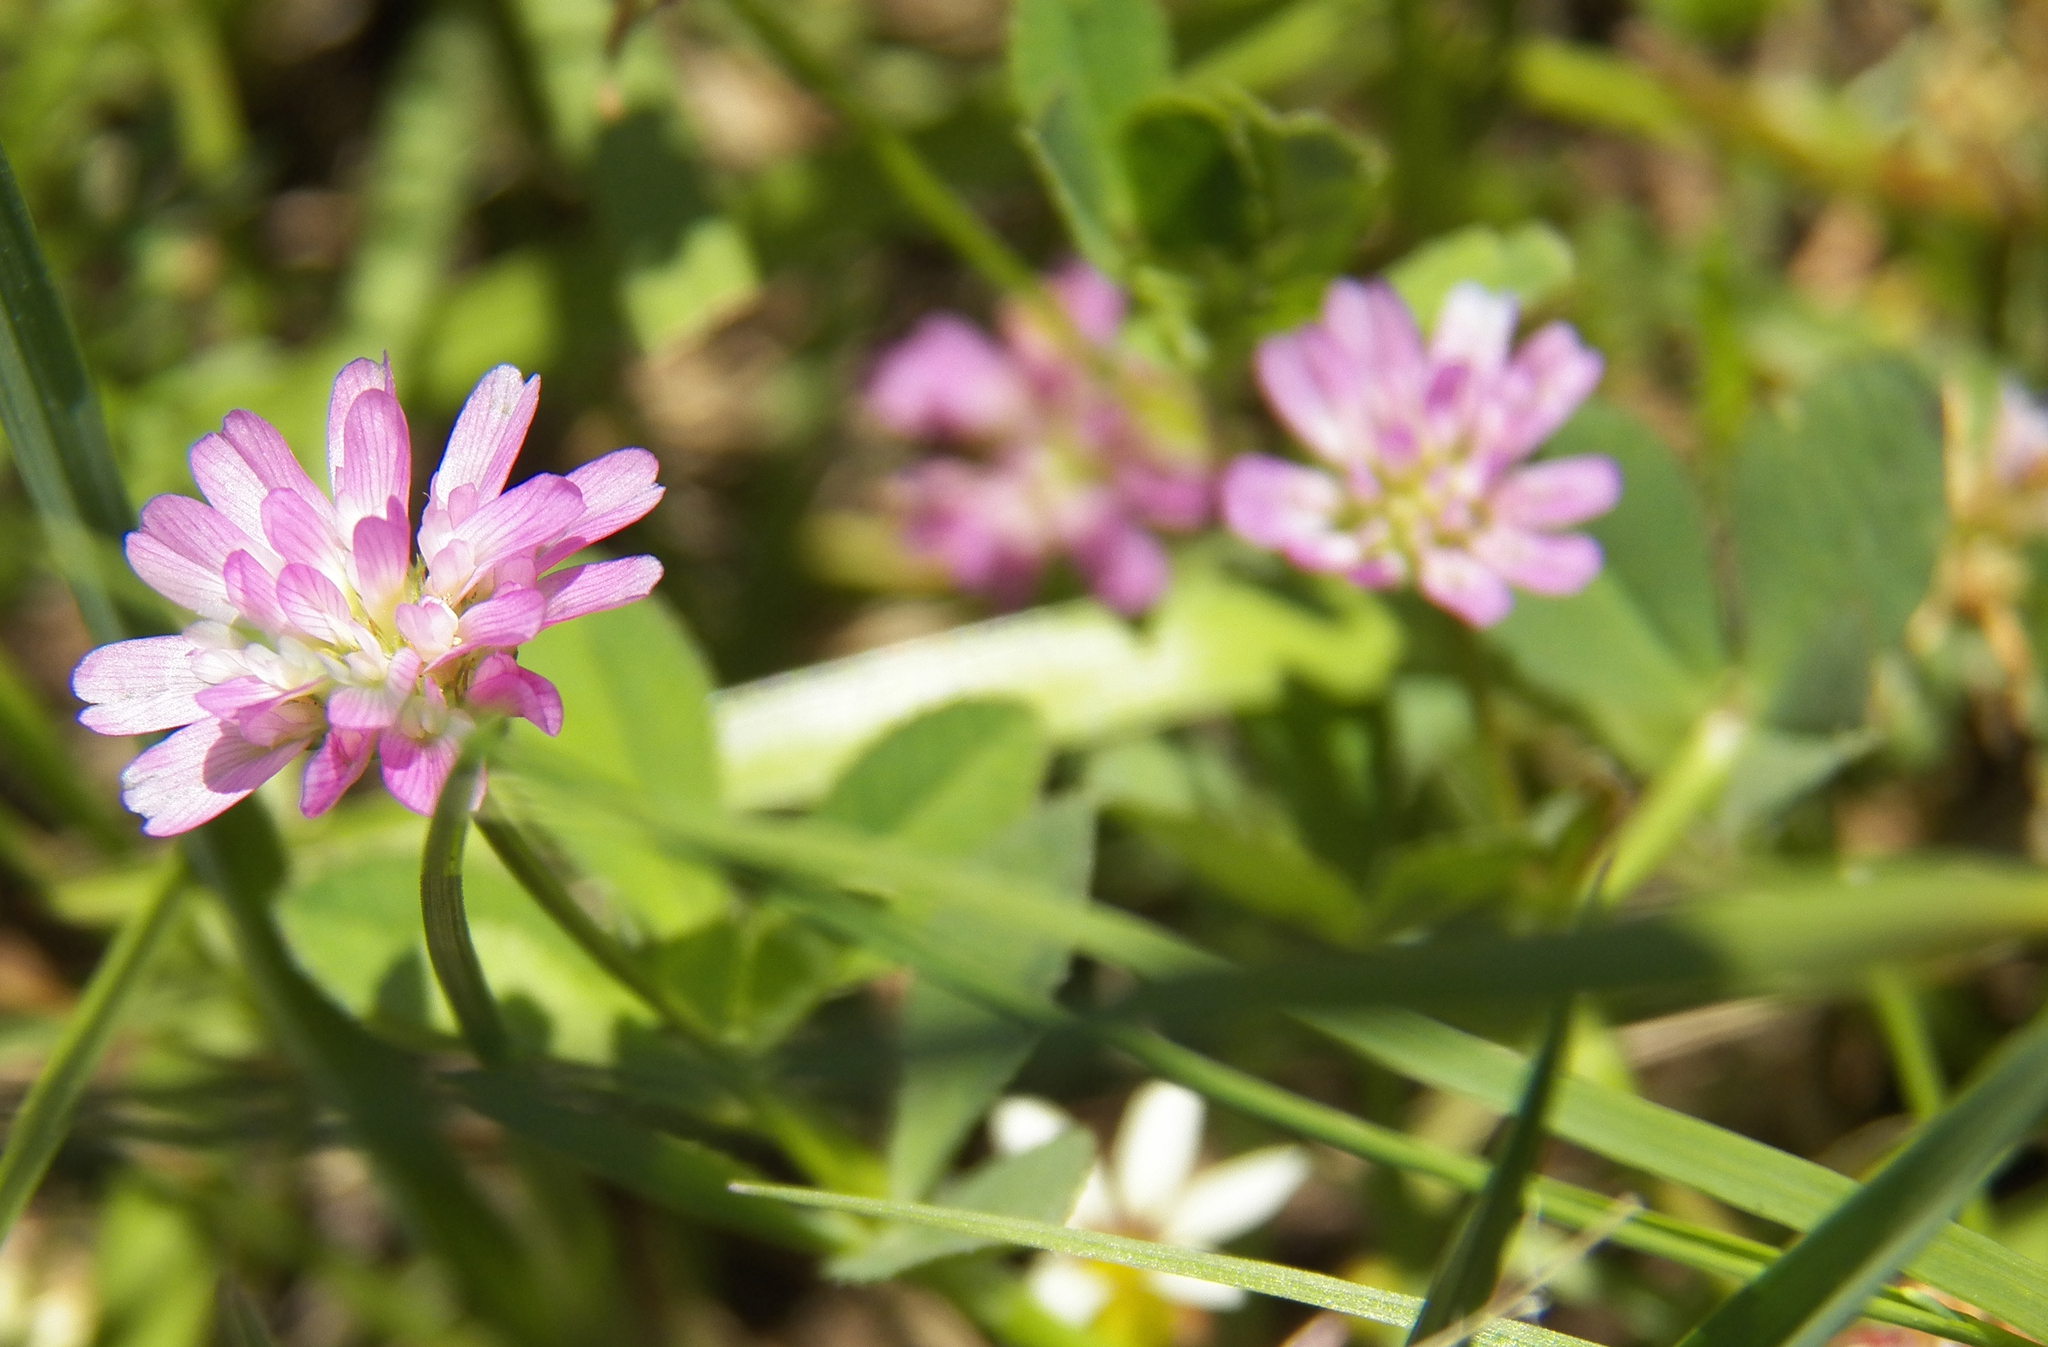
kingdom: Plantae
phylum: Tracheophyta
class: Magnoliopsida
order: Fabales
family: Fabaceae
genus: Trifolium
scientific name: Trifolium resupinatum
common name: Reversed clover
